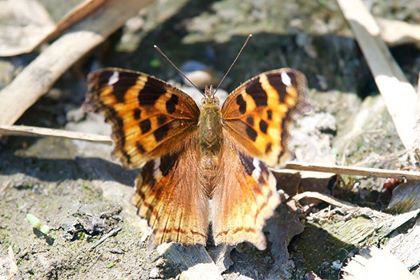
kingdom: Animalia
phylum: Arthropoda
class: Insecta
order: Lepidoptera
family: Nymphalidae
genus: Polygonia
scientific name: Polygonia vaualbum
